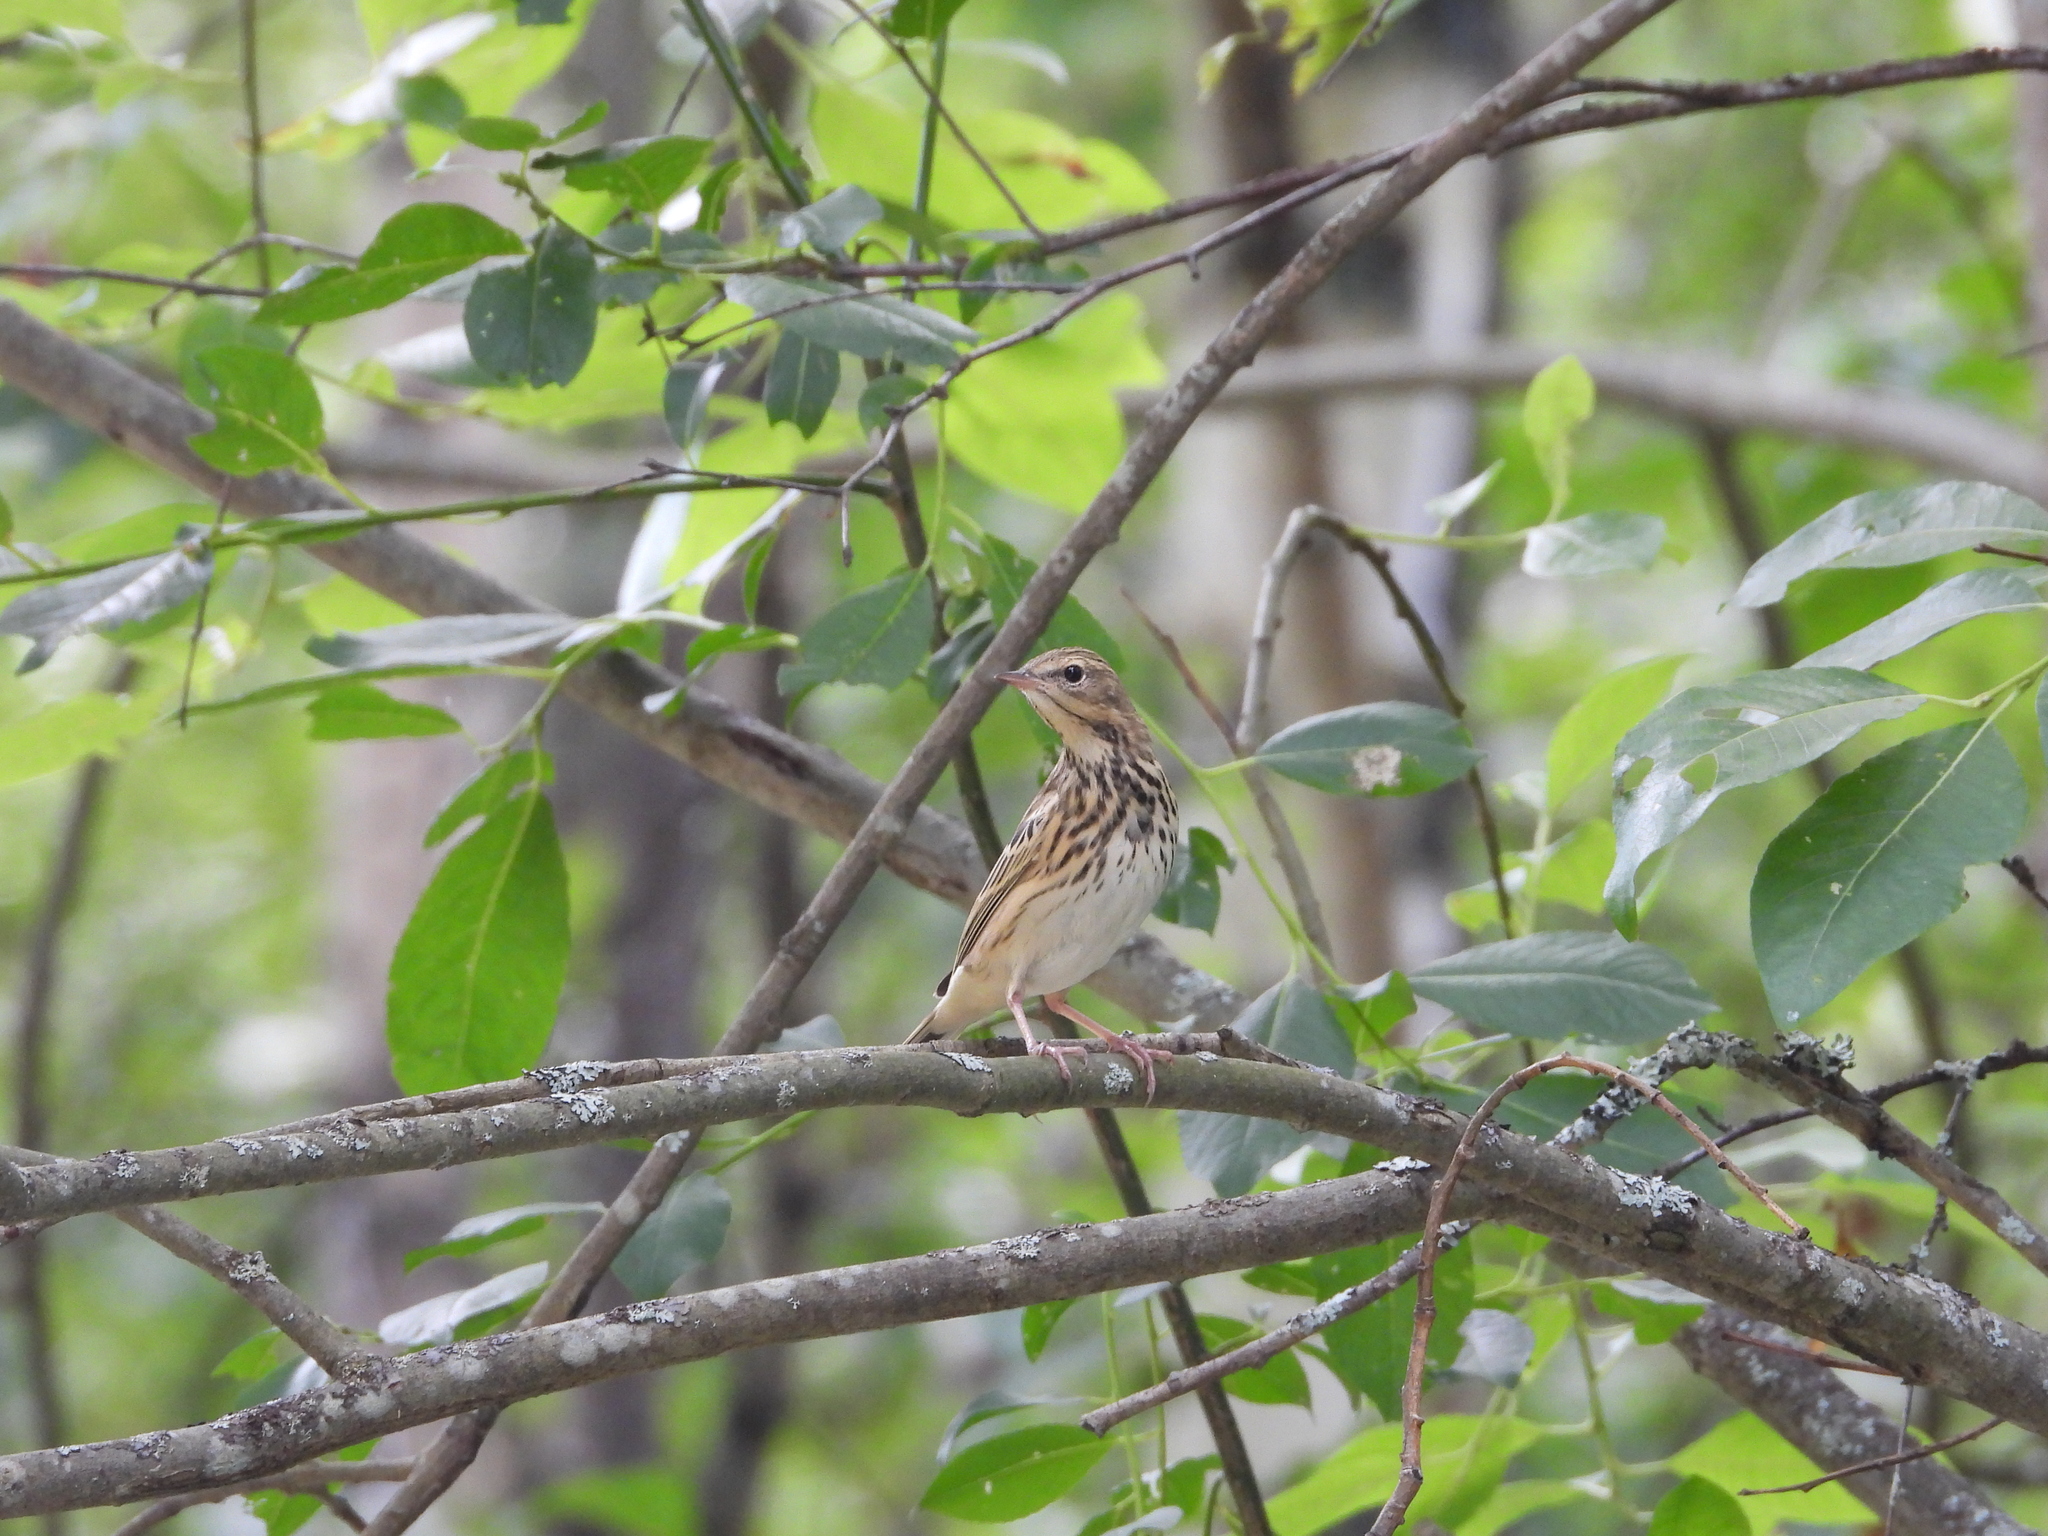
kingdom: Animalia
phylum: Chordata
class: Aves
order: Passeriformes
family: Motacillidae
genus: Anthus
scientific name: Anthus trivialis
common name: Tree pipit
